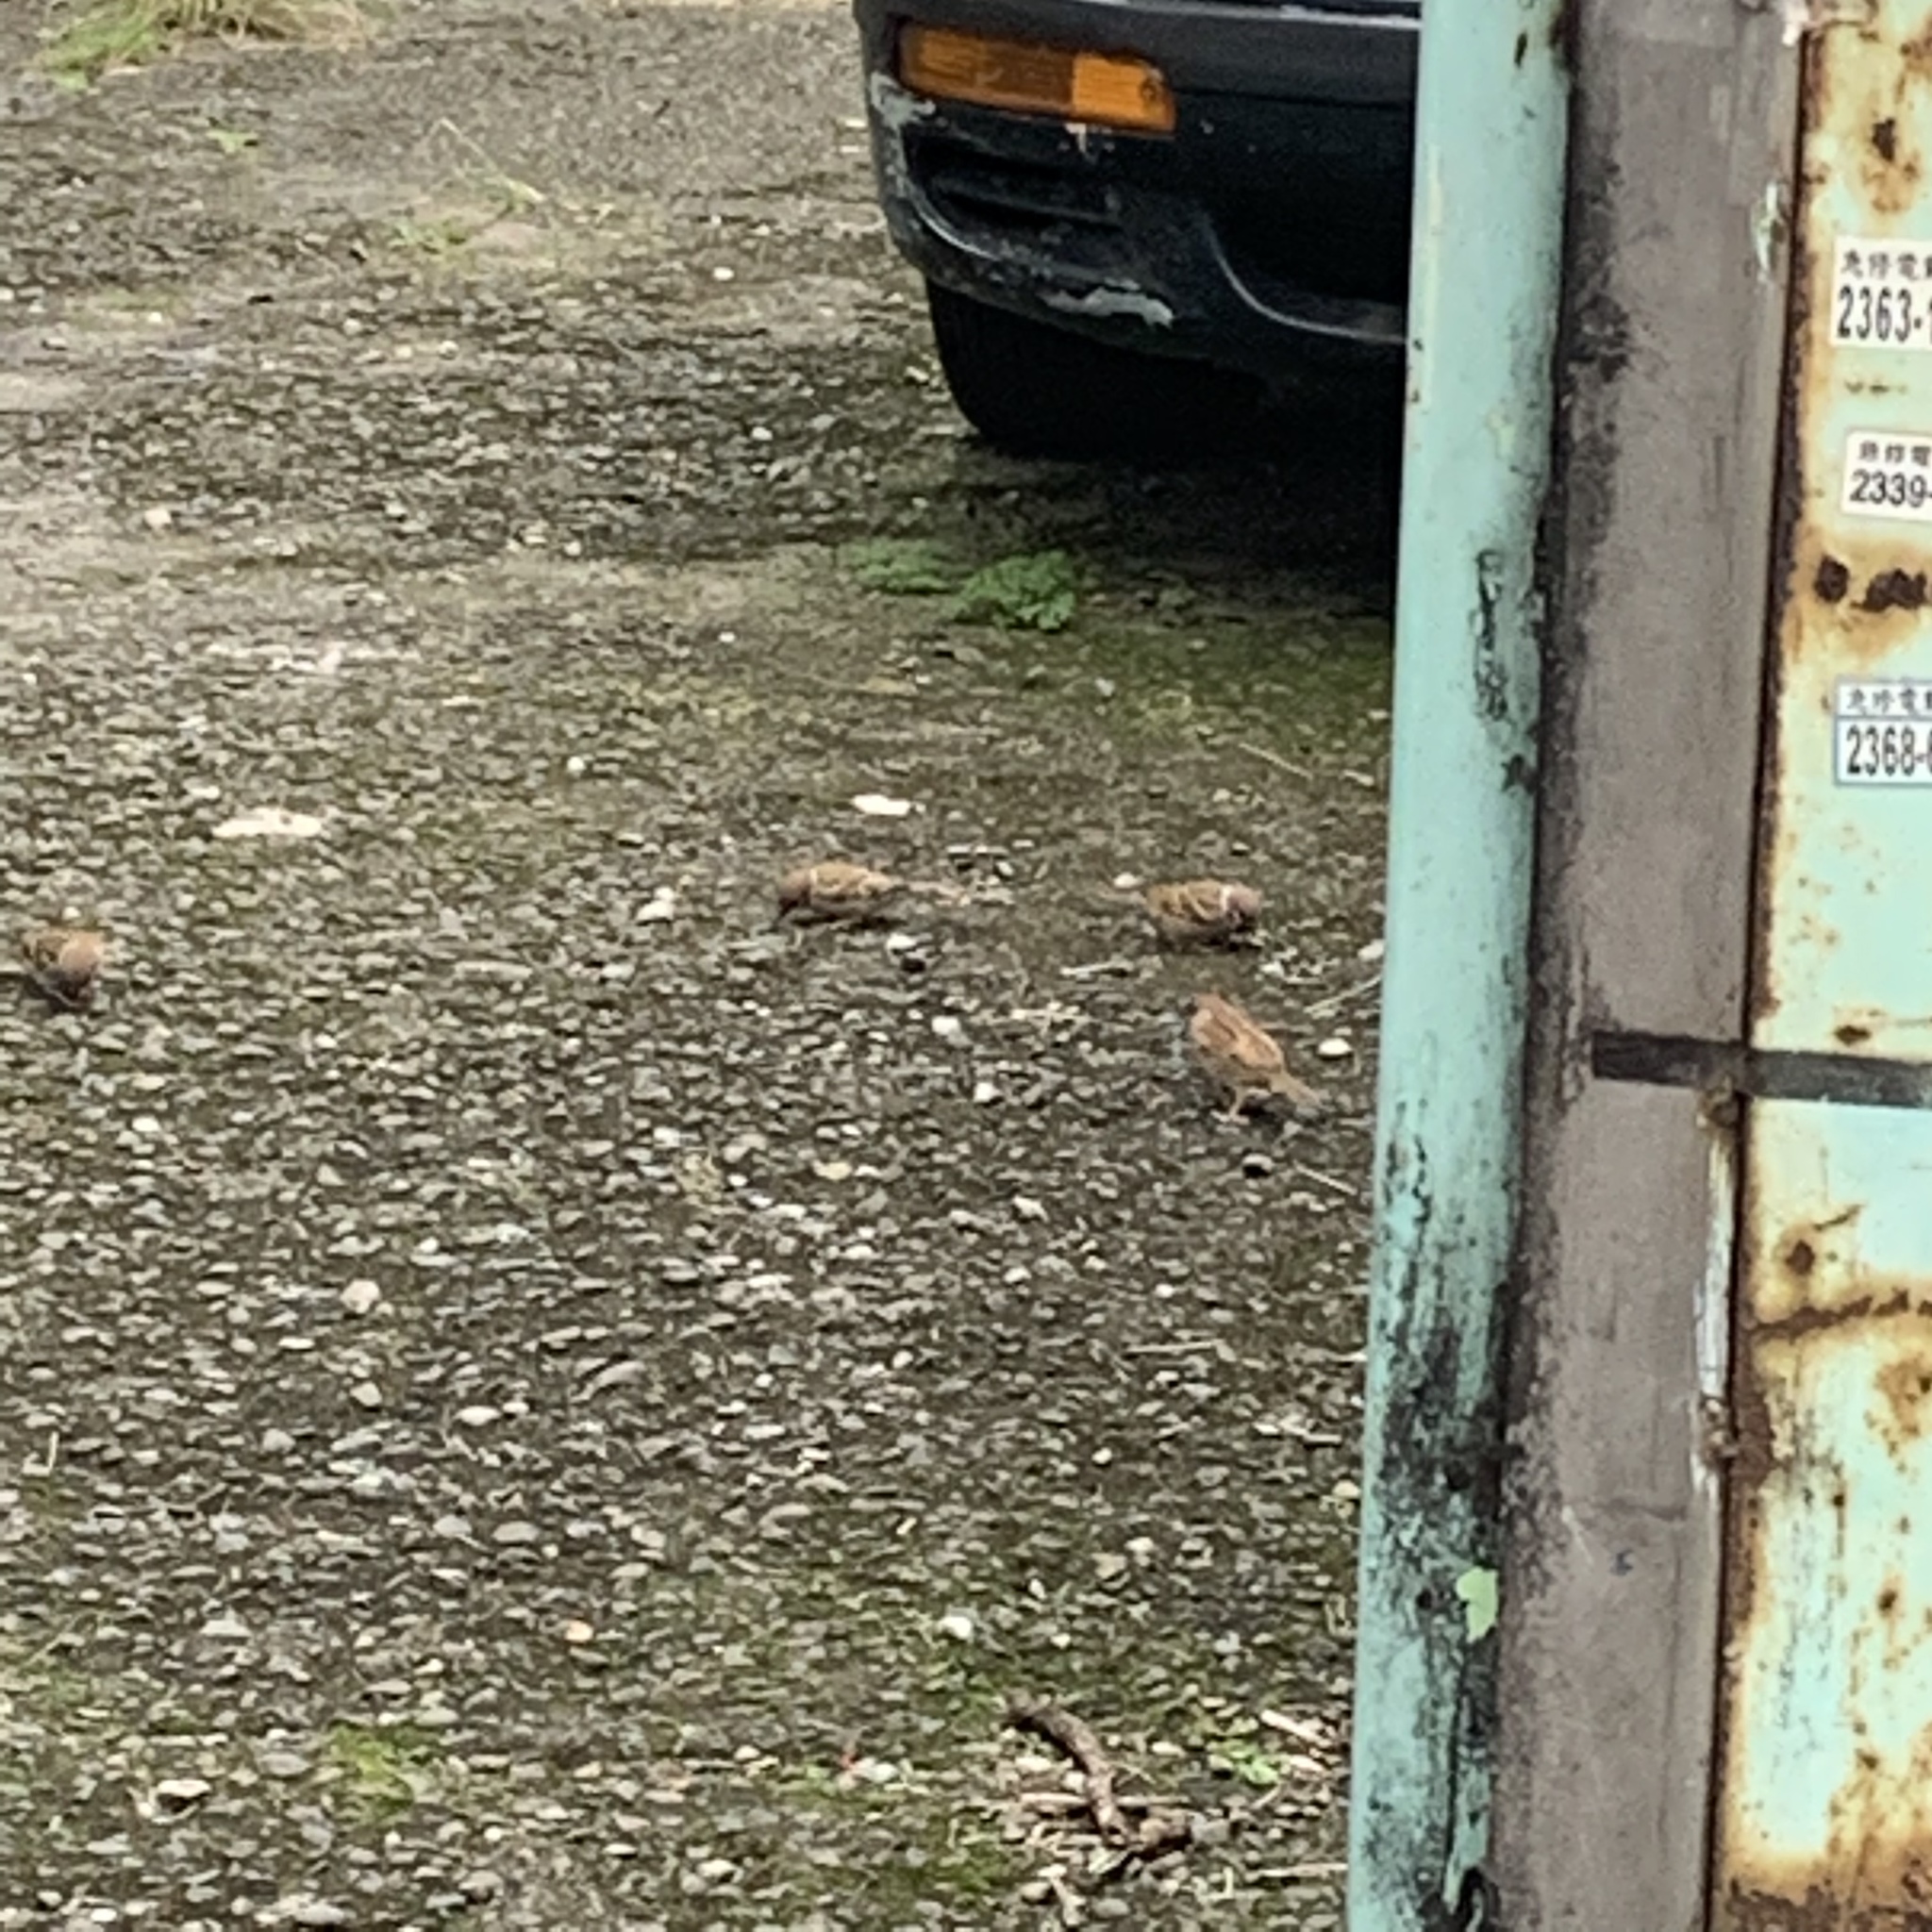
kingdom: Animalia
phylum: Chordata
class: Aves
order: Passeriformes
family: Passeridae
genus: Passer
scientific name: Passer montanus
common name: Eurasian tree sparrow
